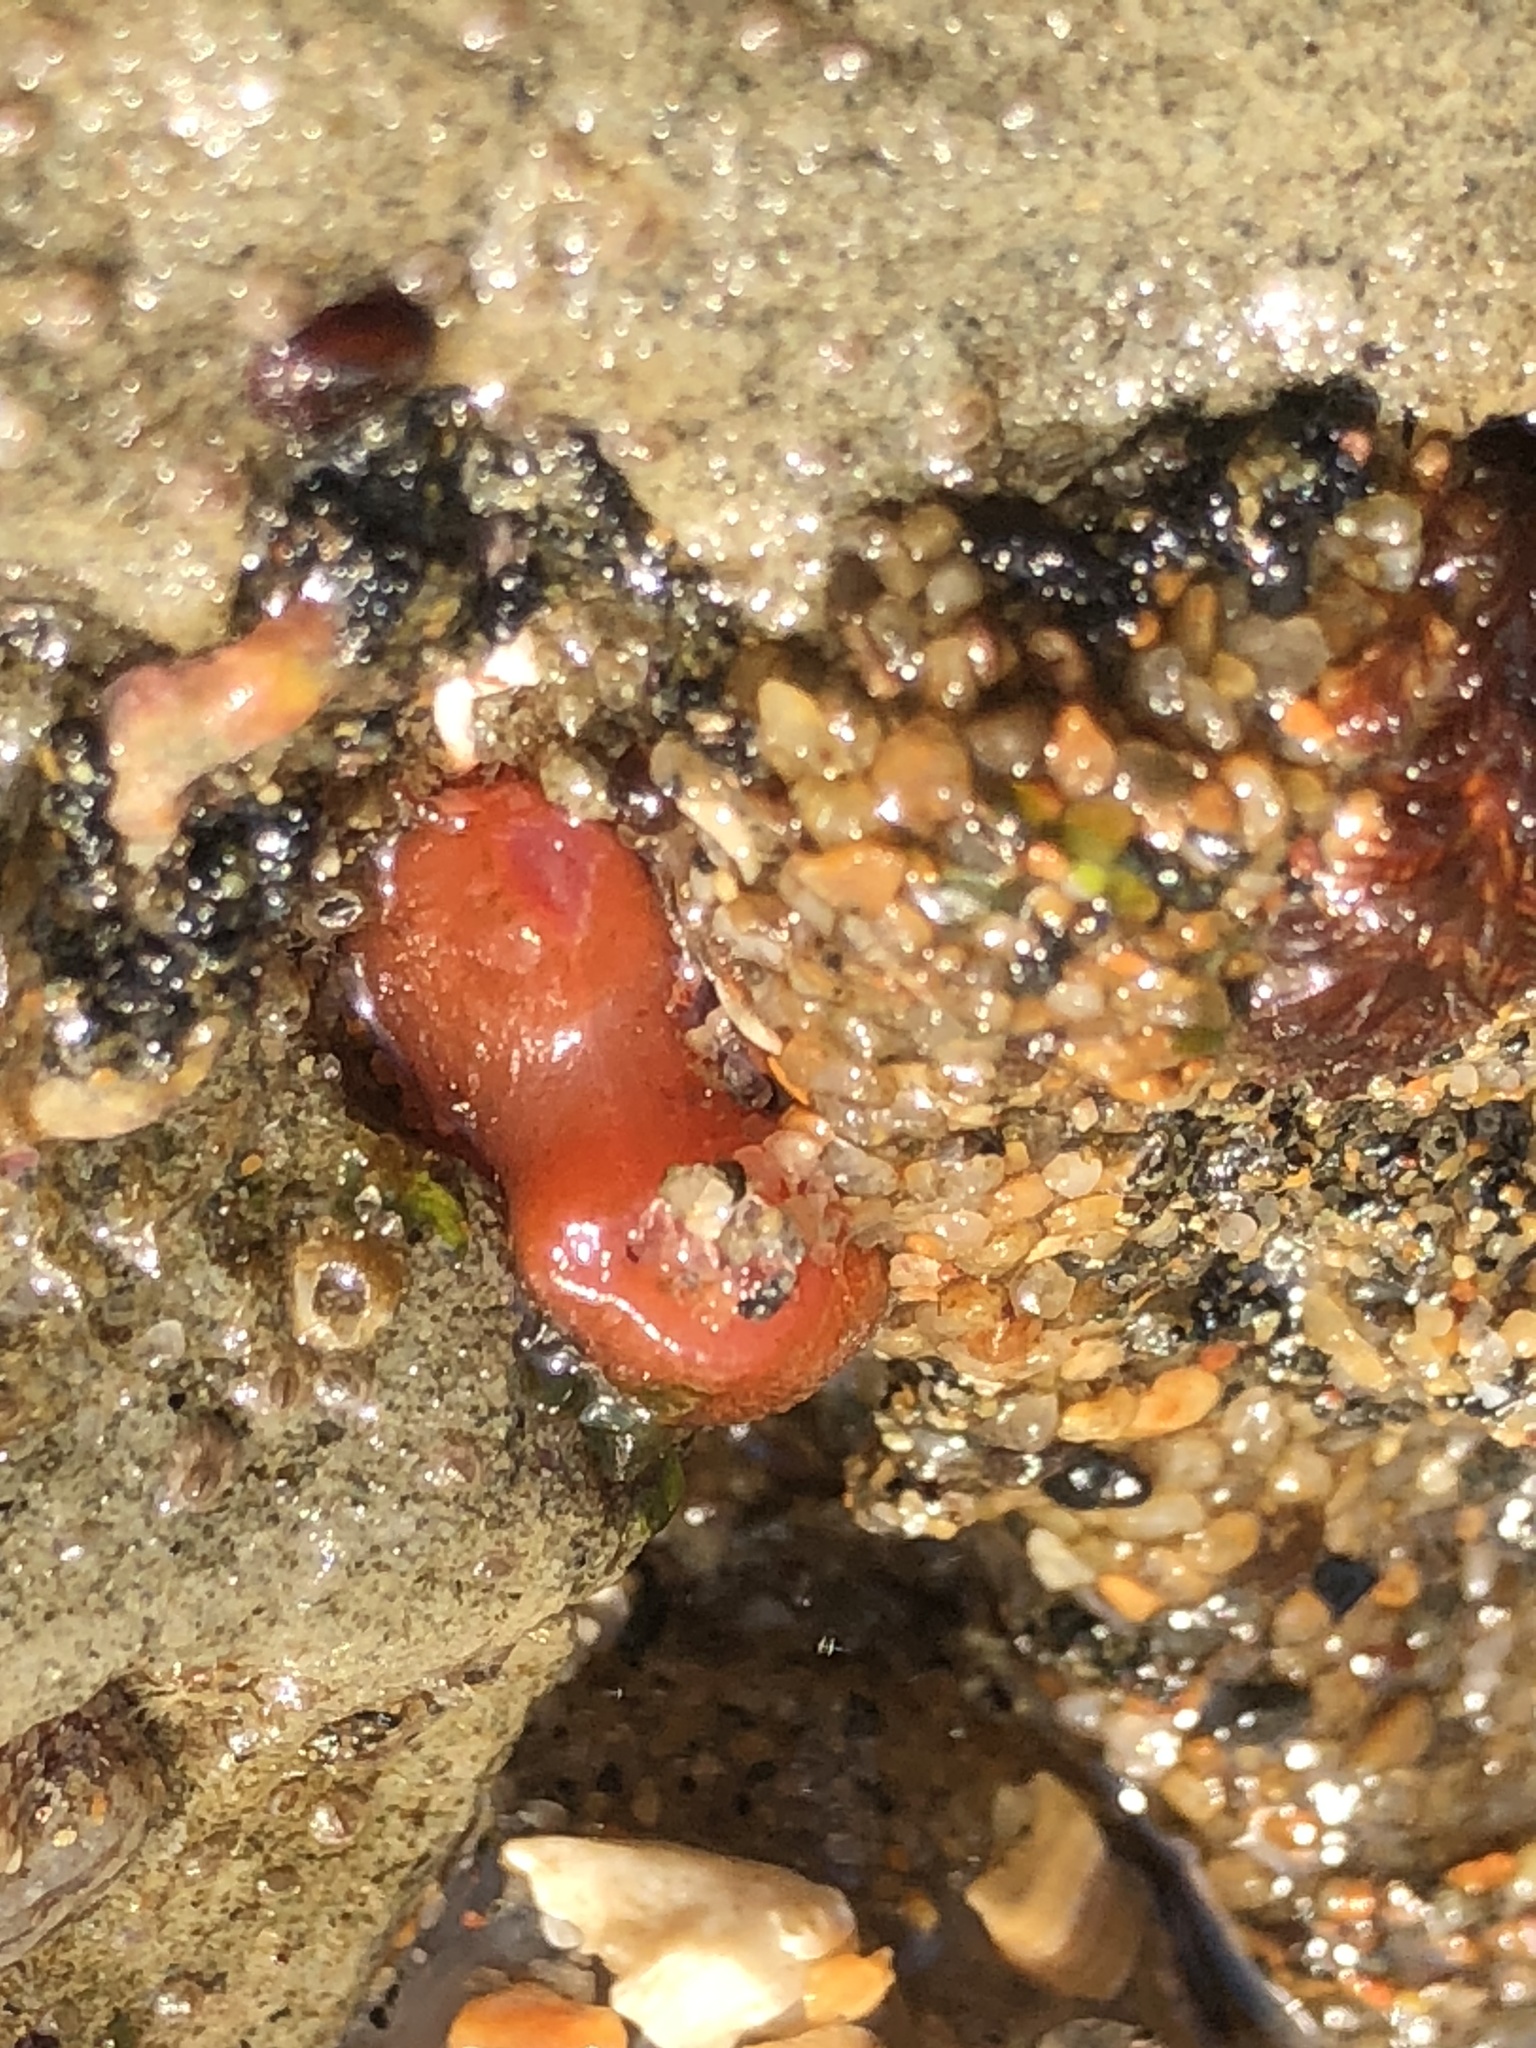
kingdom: Animalia
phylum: Mollusca
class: Bivalvia
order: Adapedonta
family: Hiatellidae
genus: Hiatella
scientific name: Hiatella arctica
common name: Arctic hiatella
